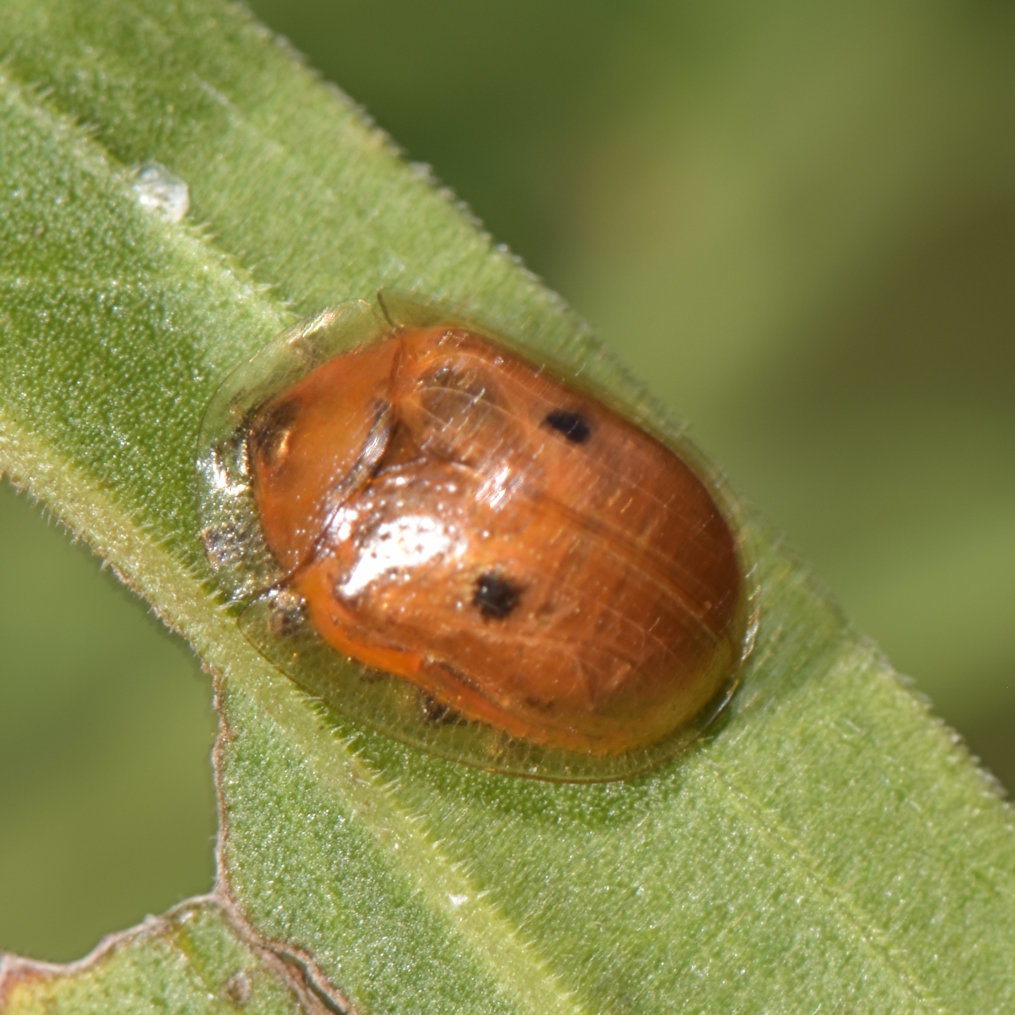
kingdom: Animalia
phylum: Arthropoda
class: Insecta
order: Coleoptera
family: Chrysomelidae
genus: Charidotella
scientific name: Charidotella sexpunctata
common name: Golden tortoise beetle
